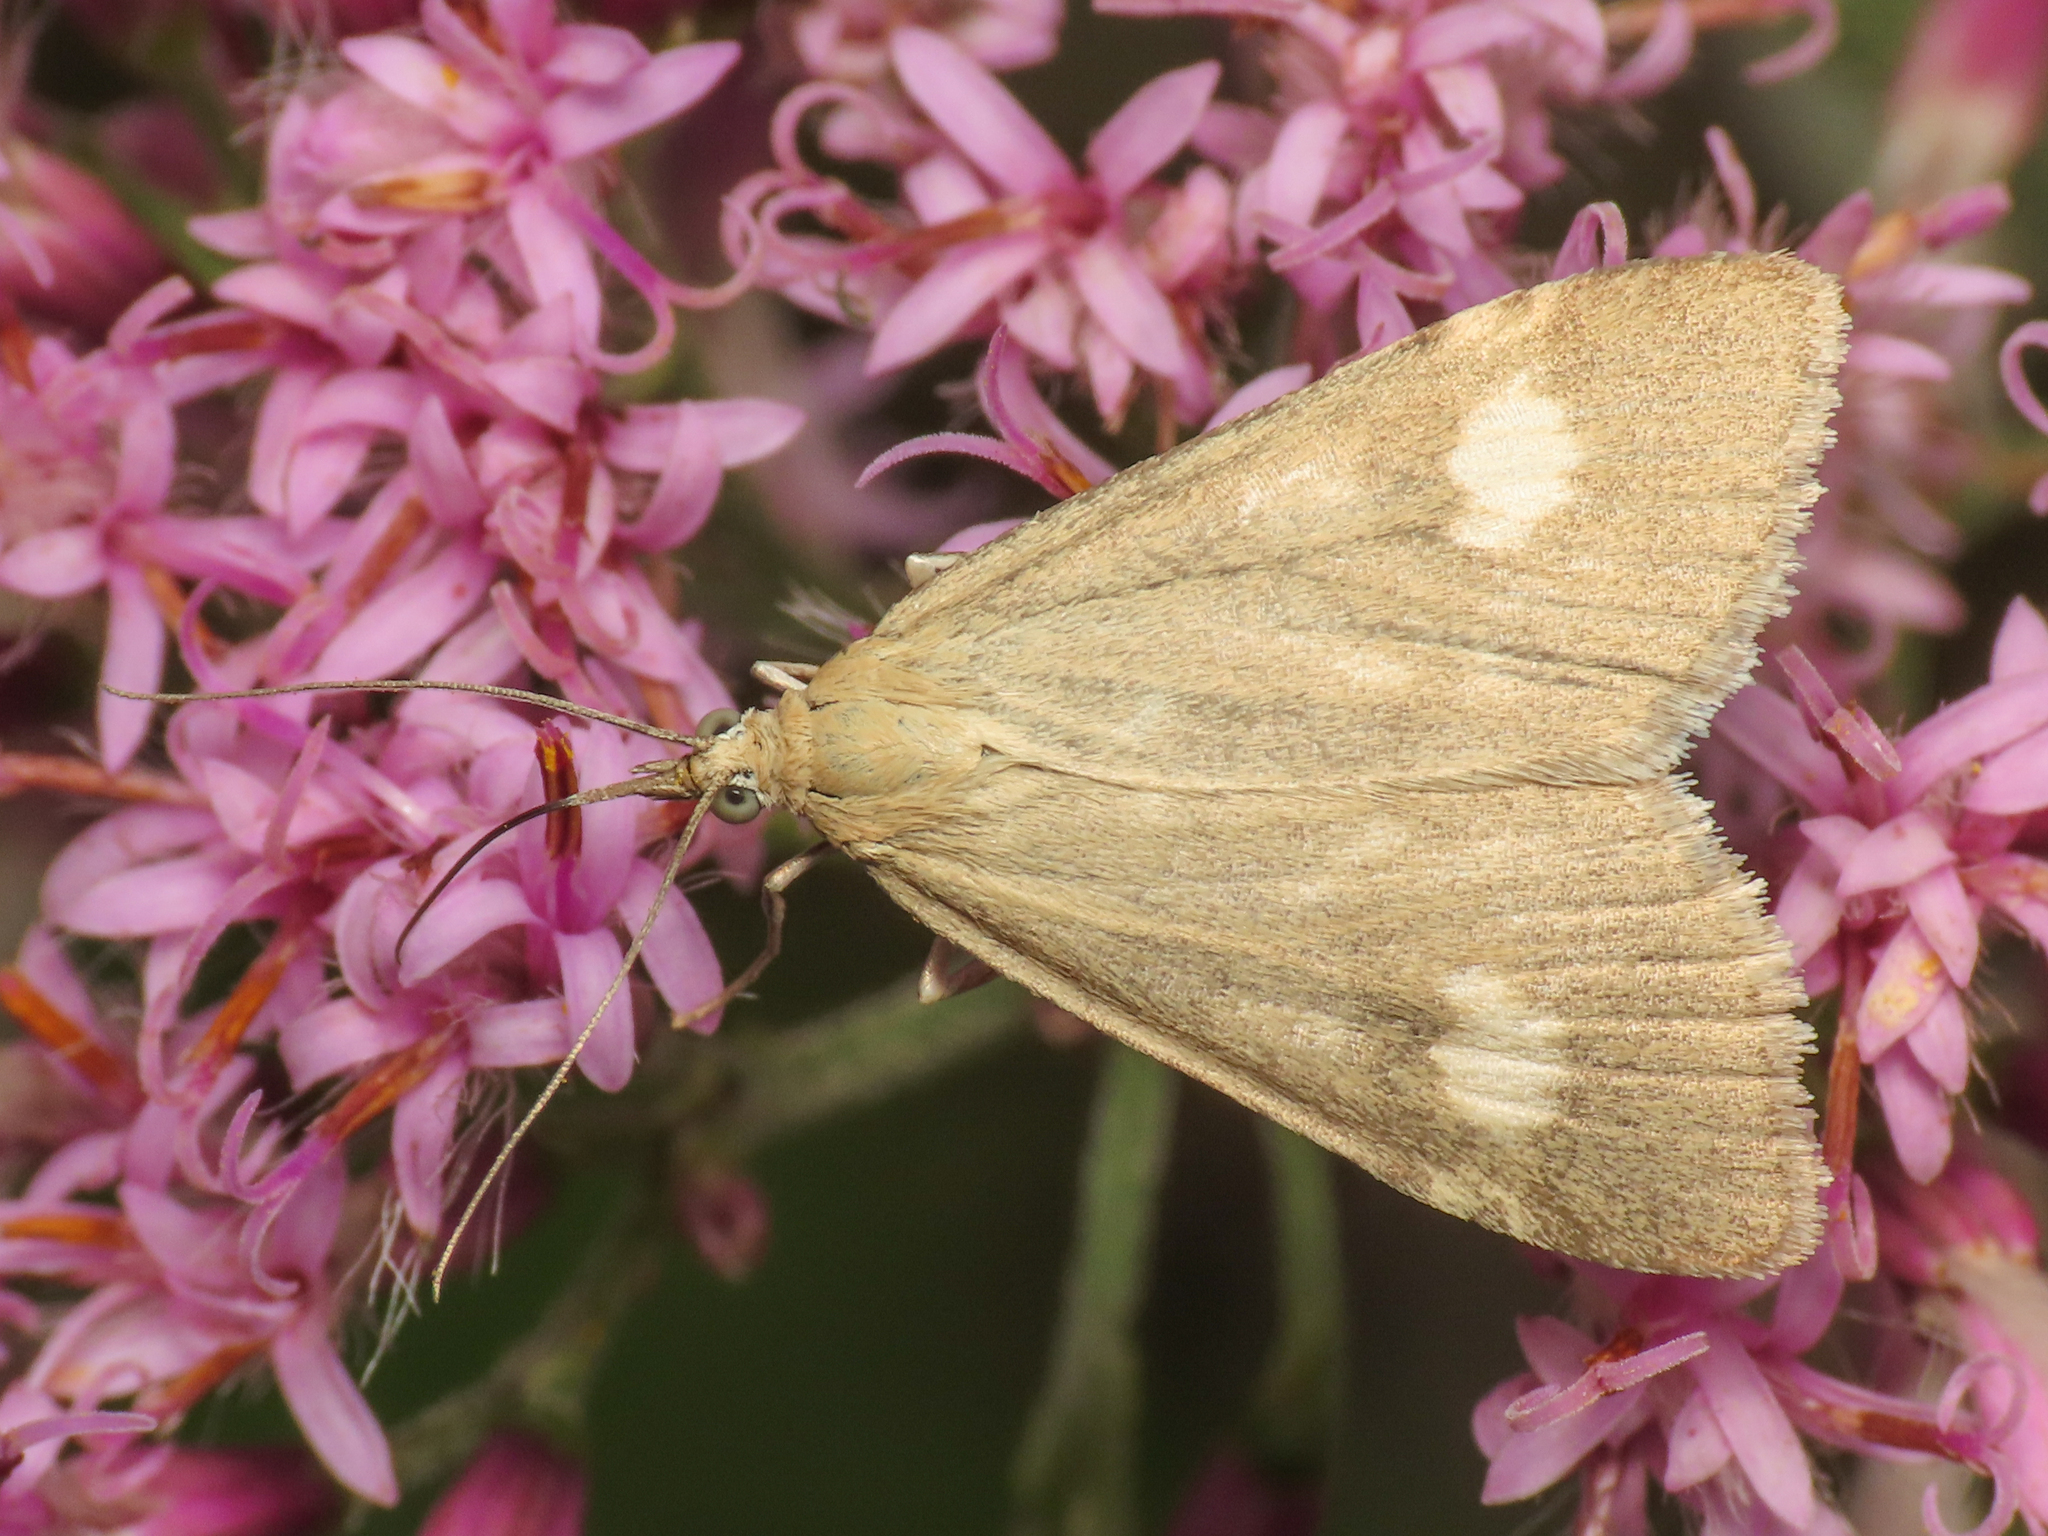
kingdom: Animalia
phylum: Arthropoda
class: Insecta
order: Lepidoptera
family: Crambidae
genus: Pyrausta
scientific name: Pyrausta alpinalis
